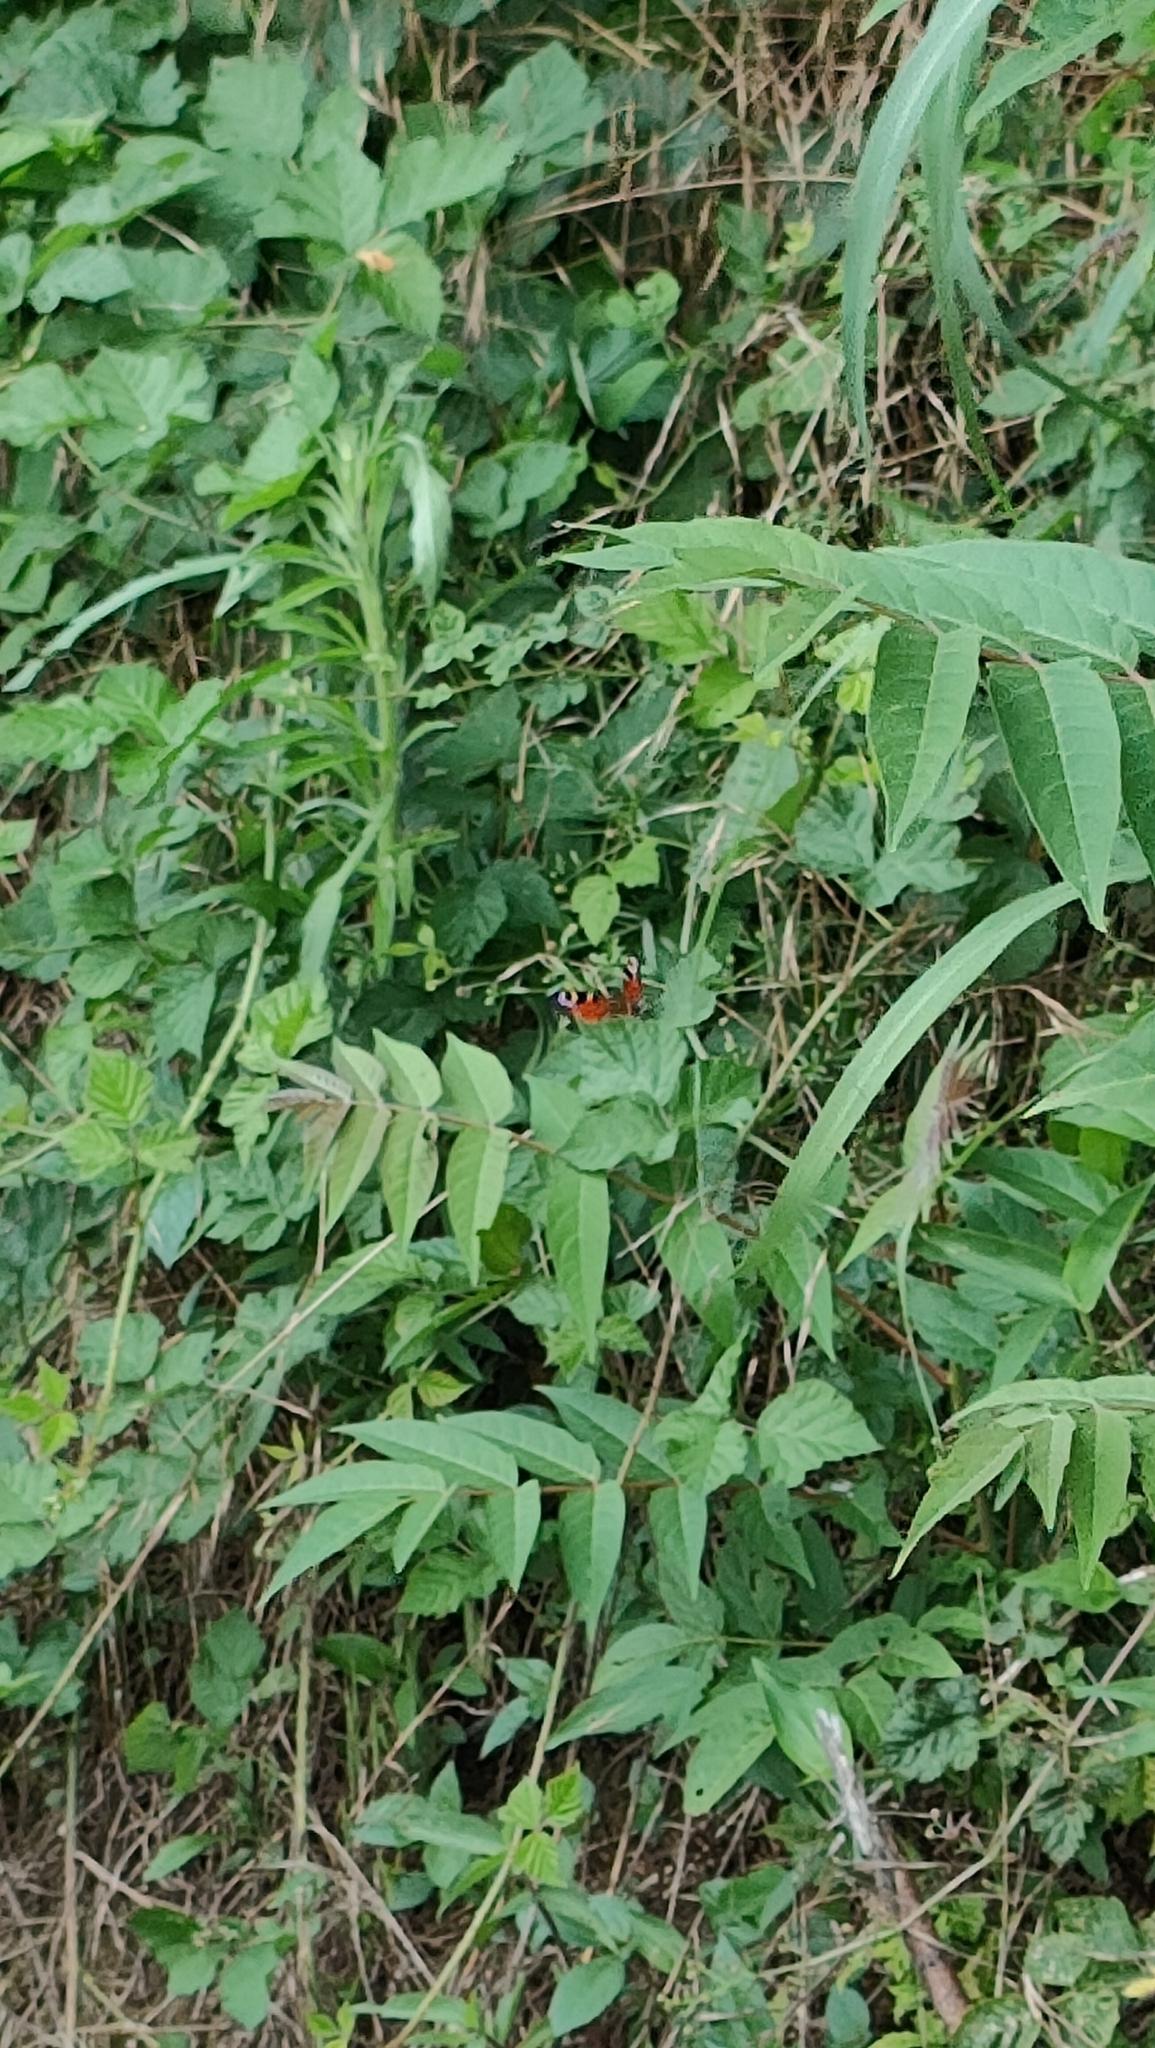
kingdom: Animalia
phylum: Arthropoda
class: Insecta
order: Lepidoptera
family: Nymphalidae
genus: Aglais
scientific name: Aglais io
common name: Peacock
